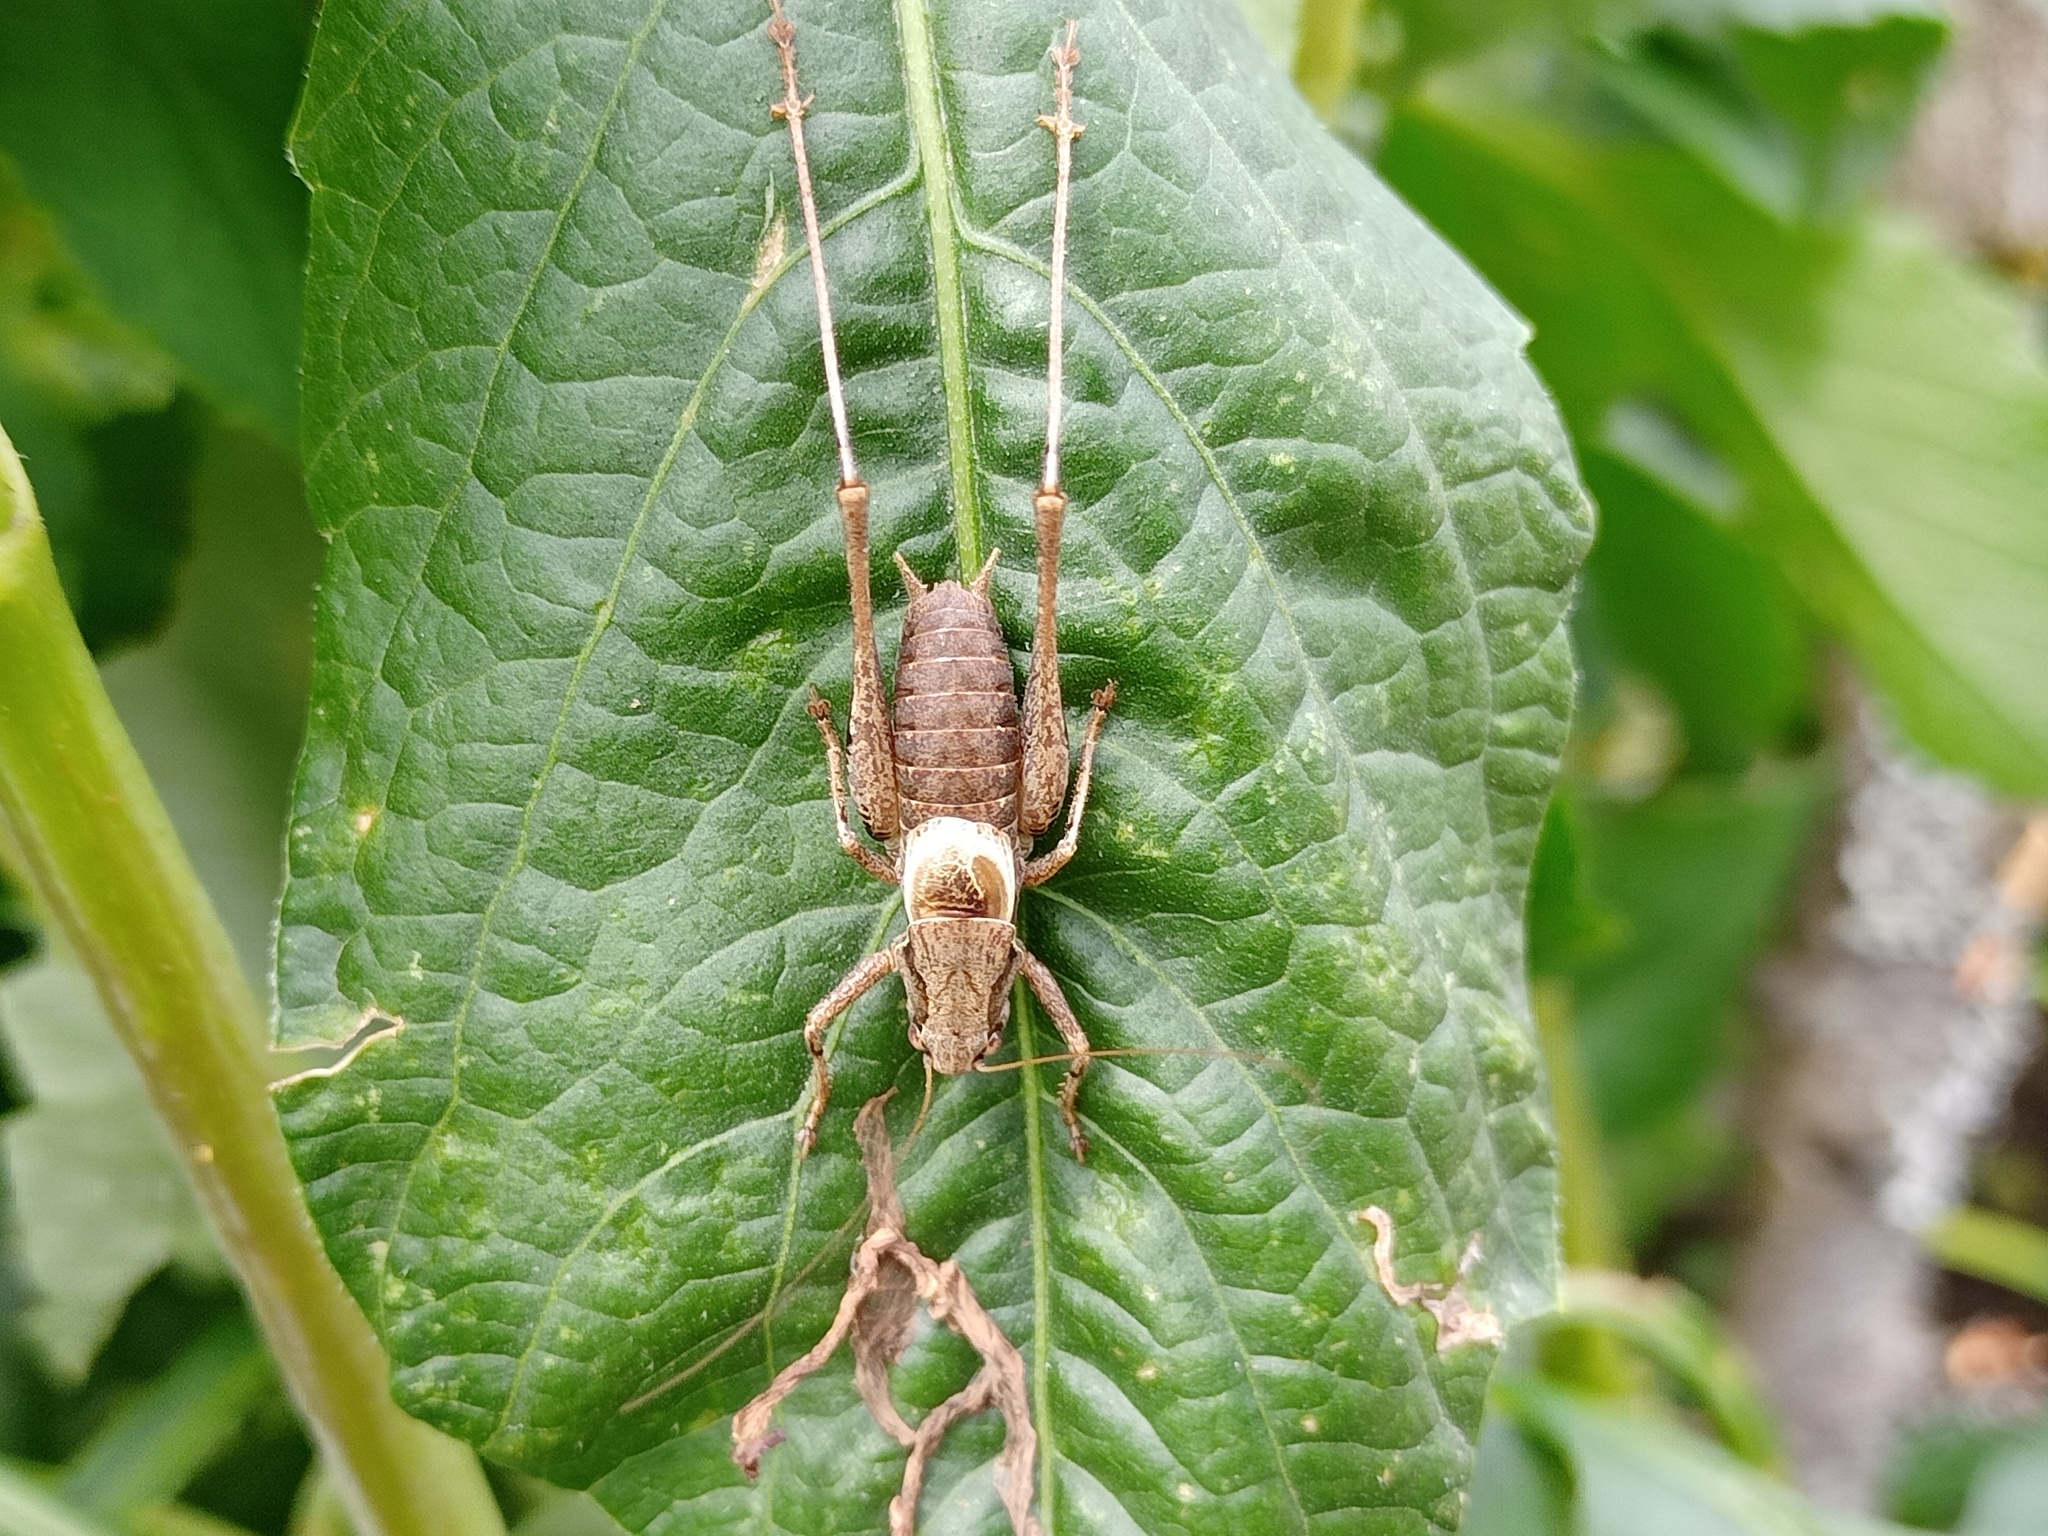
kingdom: Animalia
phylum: Arthropoda
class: Insecta
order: Orthoptera
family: Tettigoniidae
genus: Pholidoptera
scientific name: Pholidoptera griseoaptera
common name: Dark bush-cricket
